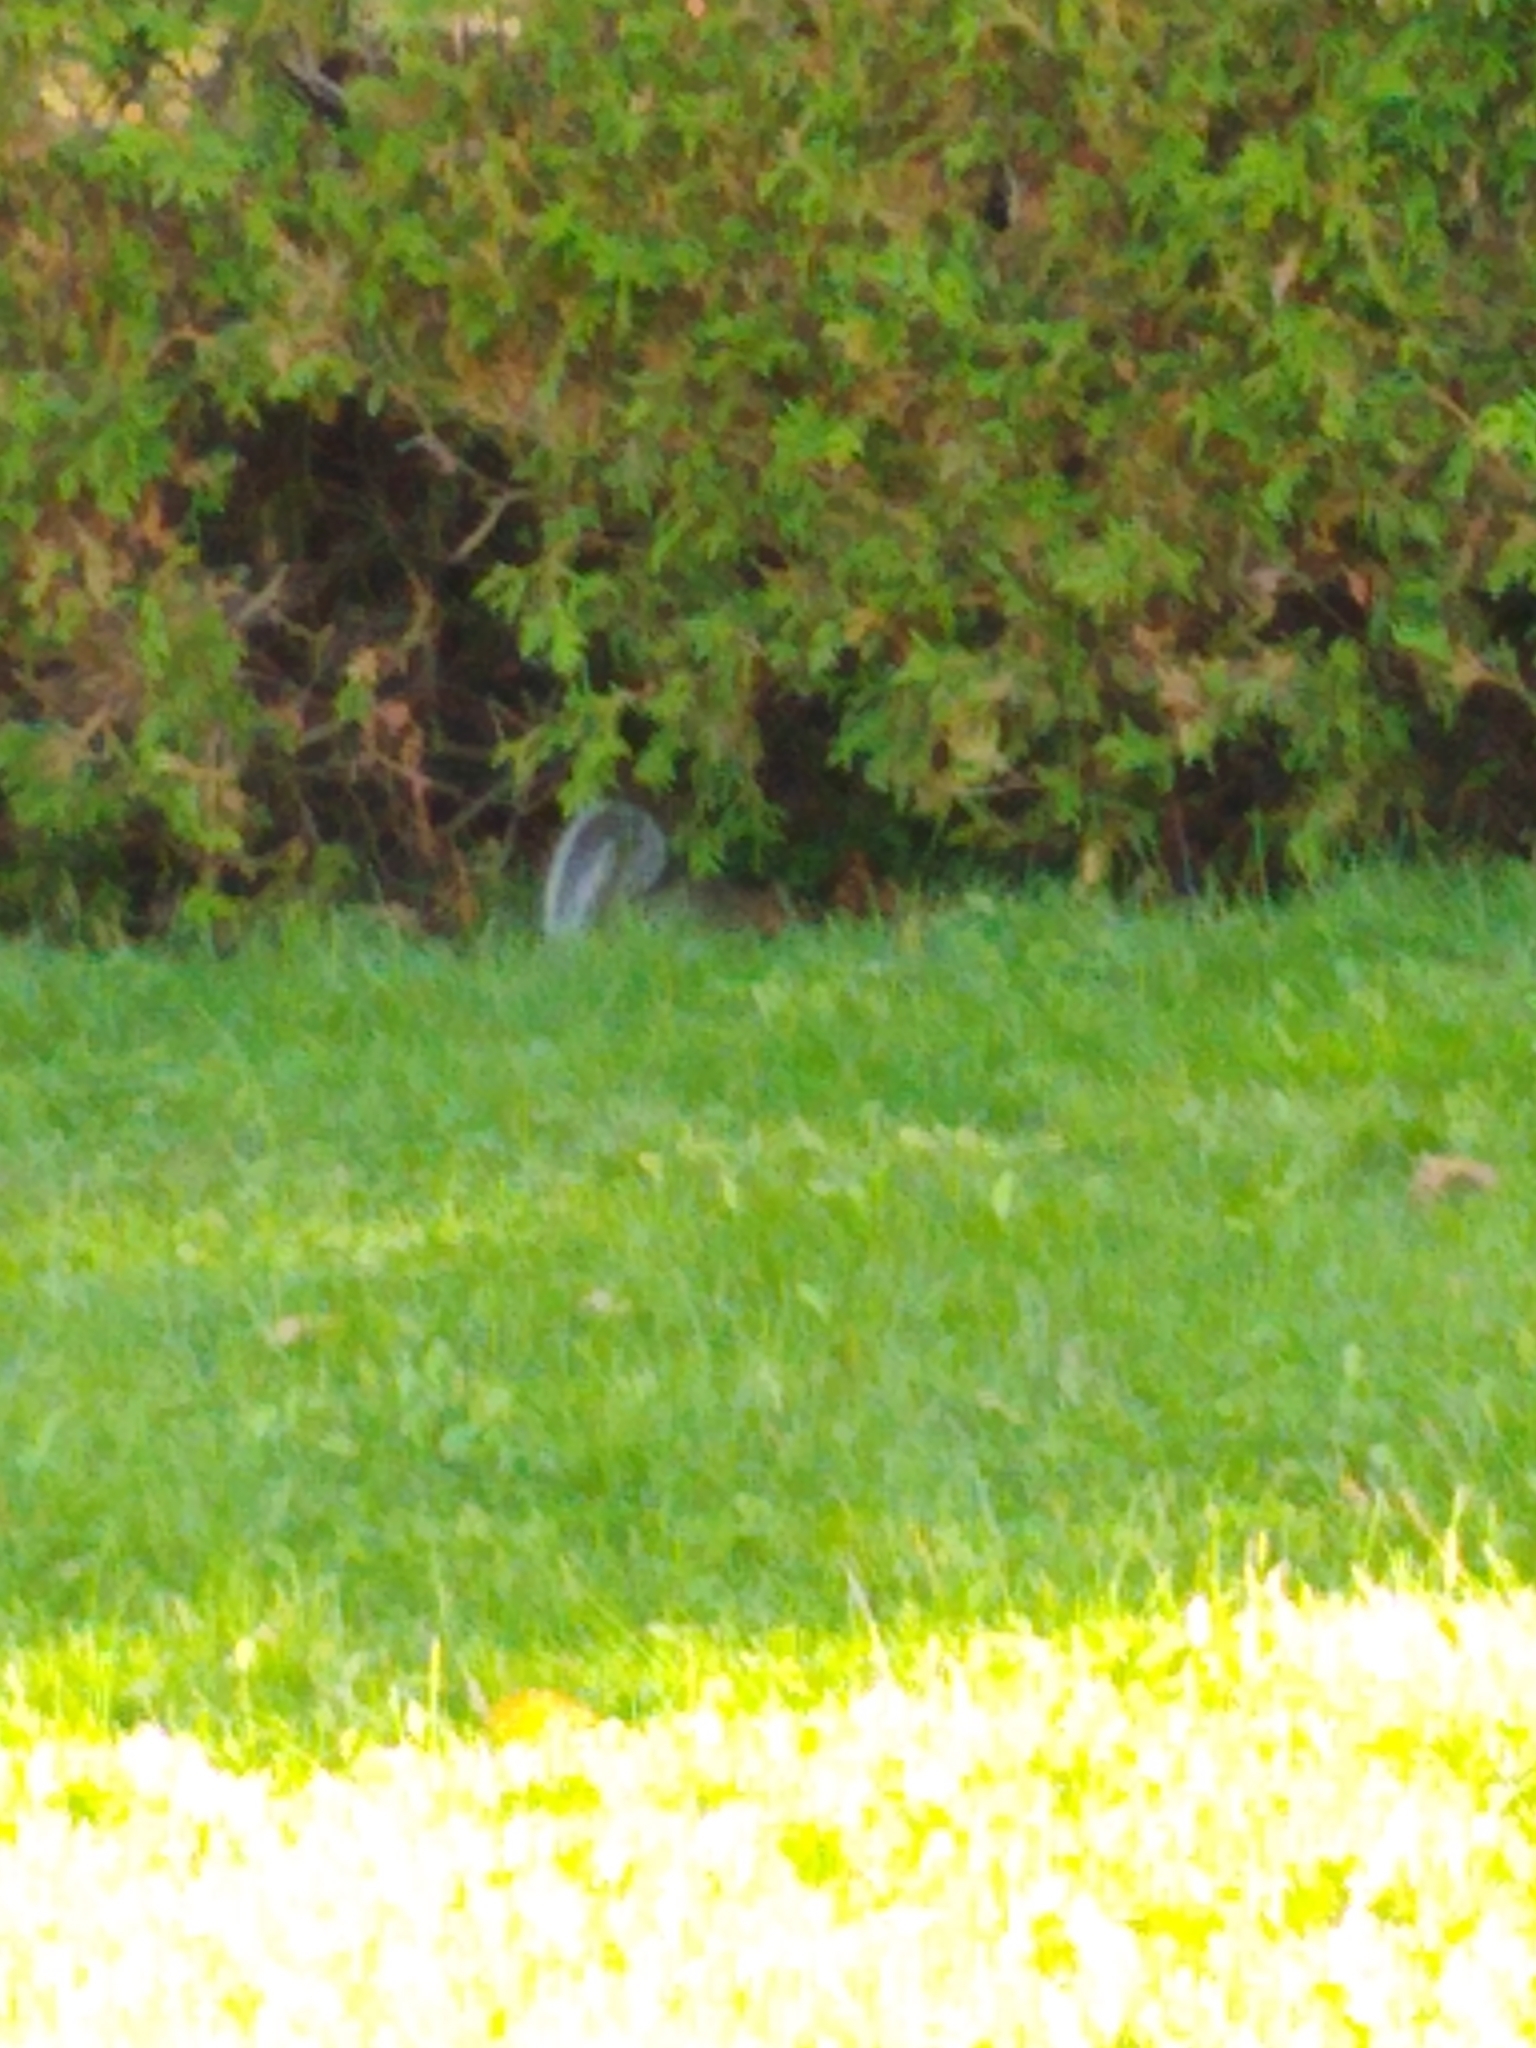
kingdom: Animalia
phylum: Chordata
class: Mammalia
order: Rodentia
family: Sciuridae
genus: Sciurus
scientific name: Sciurus carolinensis
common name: Eastern gray squirrel
